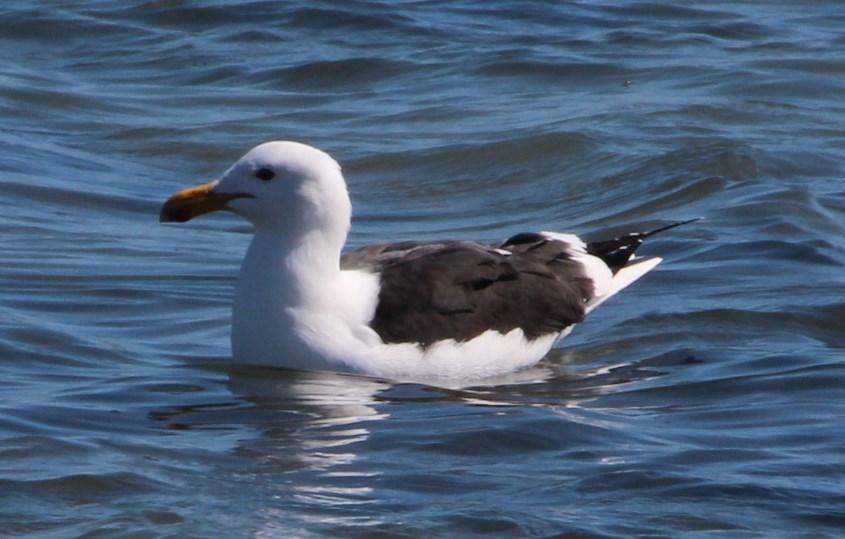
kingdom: Animalia
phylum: Chordata
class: Aves
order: Charadriiformes
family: Laridae
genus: Larus
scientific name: Larus dominicanus
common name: Kelp gull
